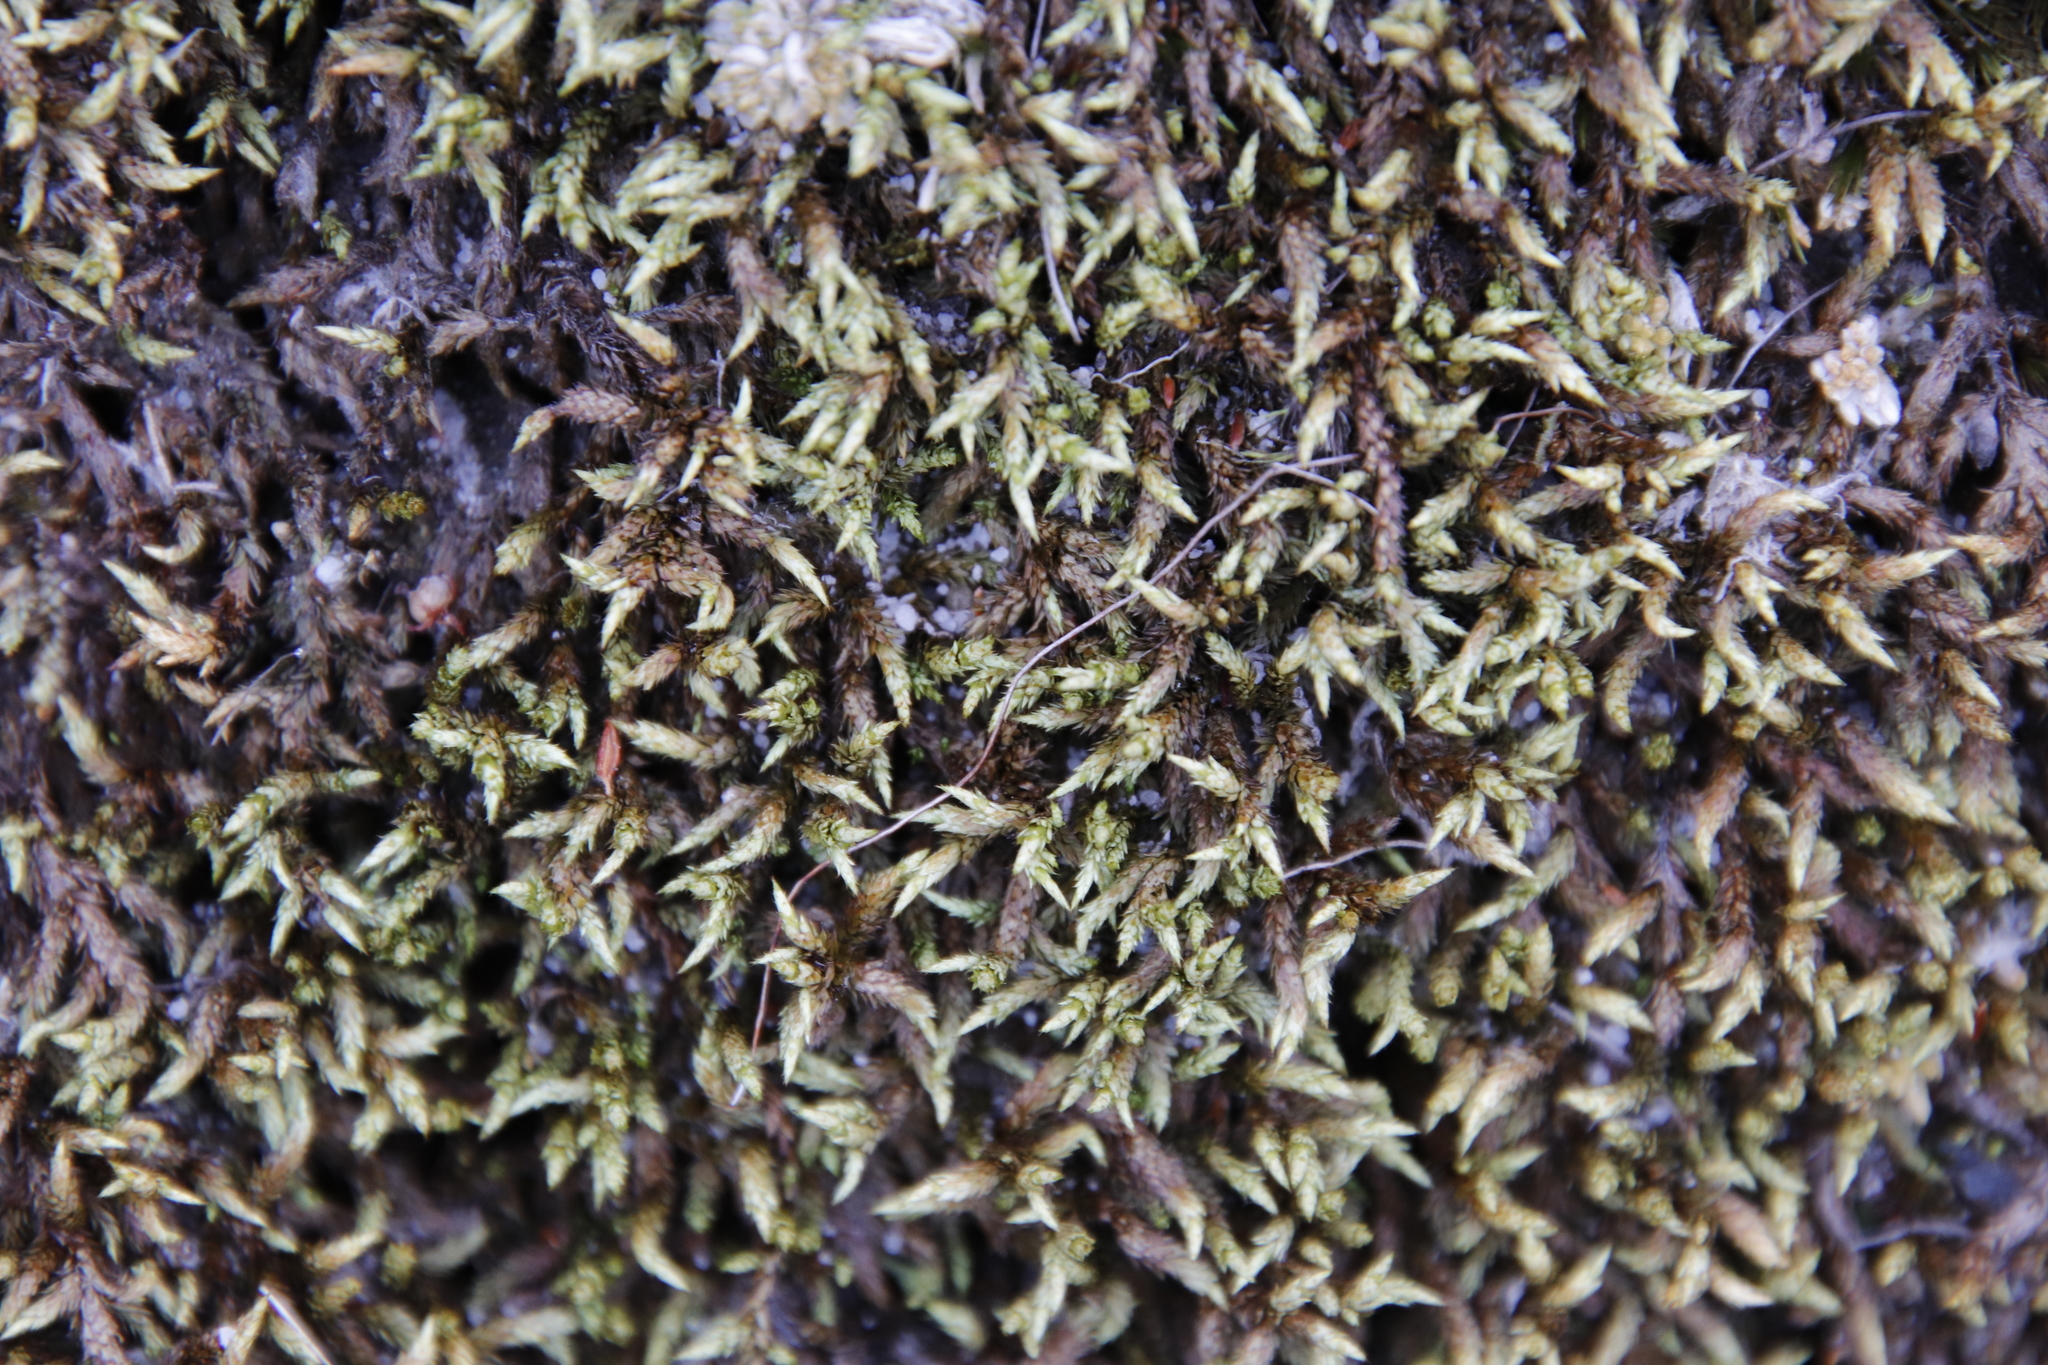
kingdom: Plantae
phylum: Bryophyta
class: Bryopsida
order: Hedwigiales
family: Hedwigiaceae
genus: Rhacocarpus
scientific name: Rhacocarpus purpurascens
